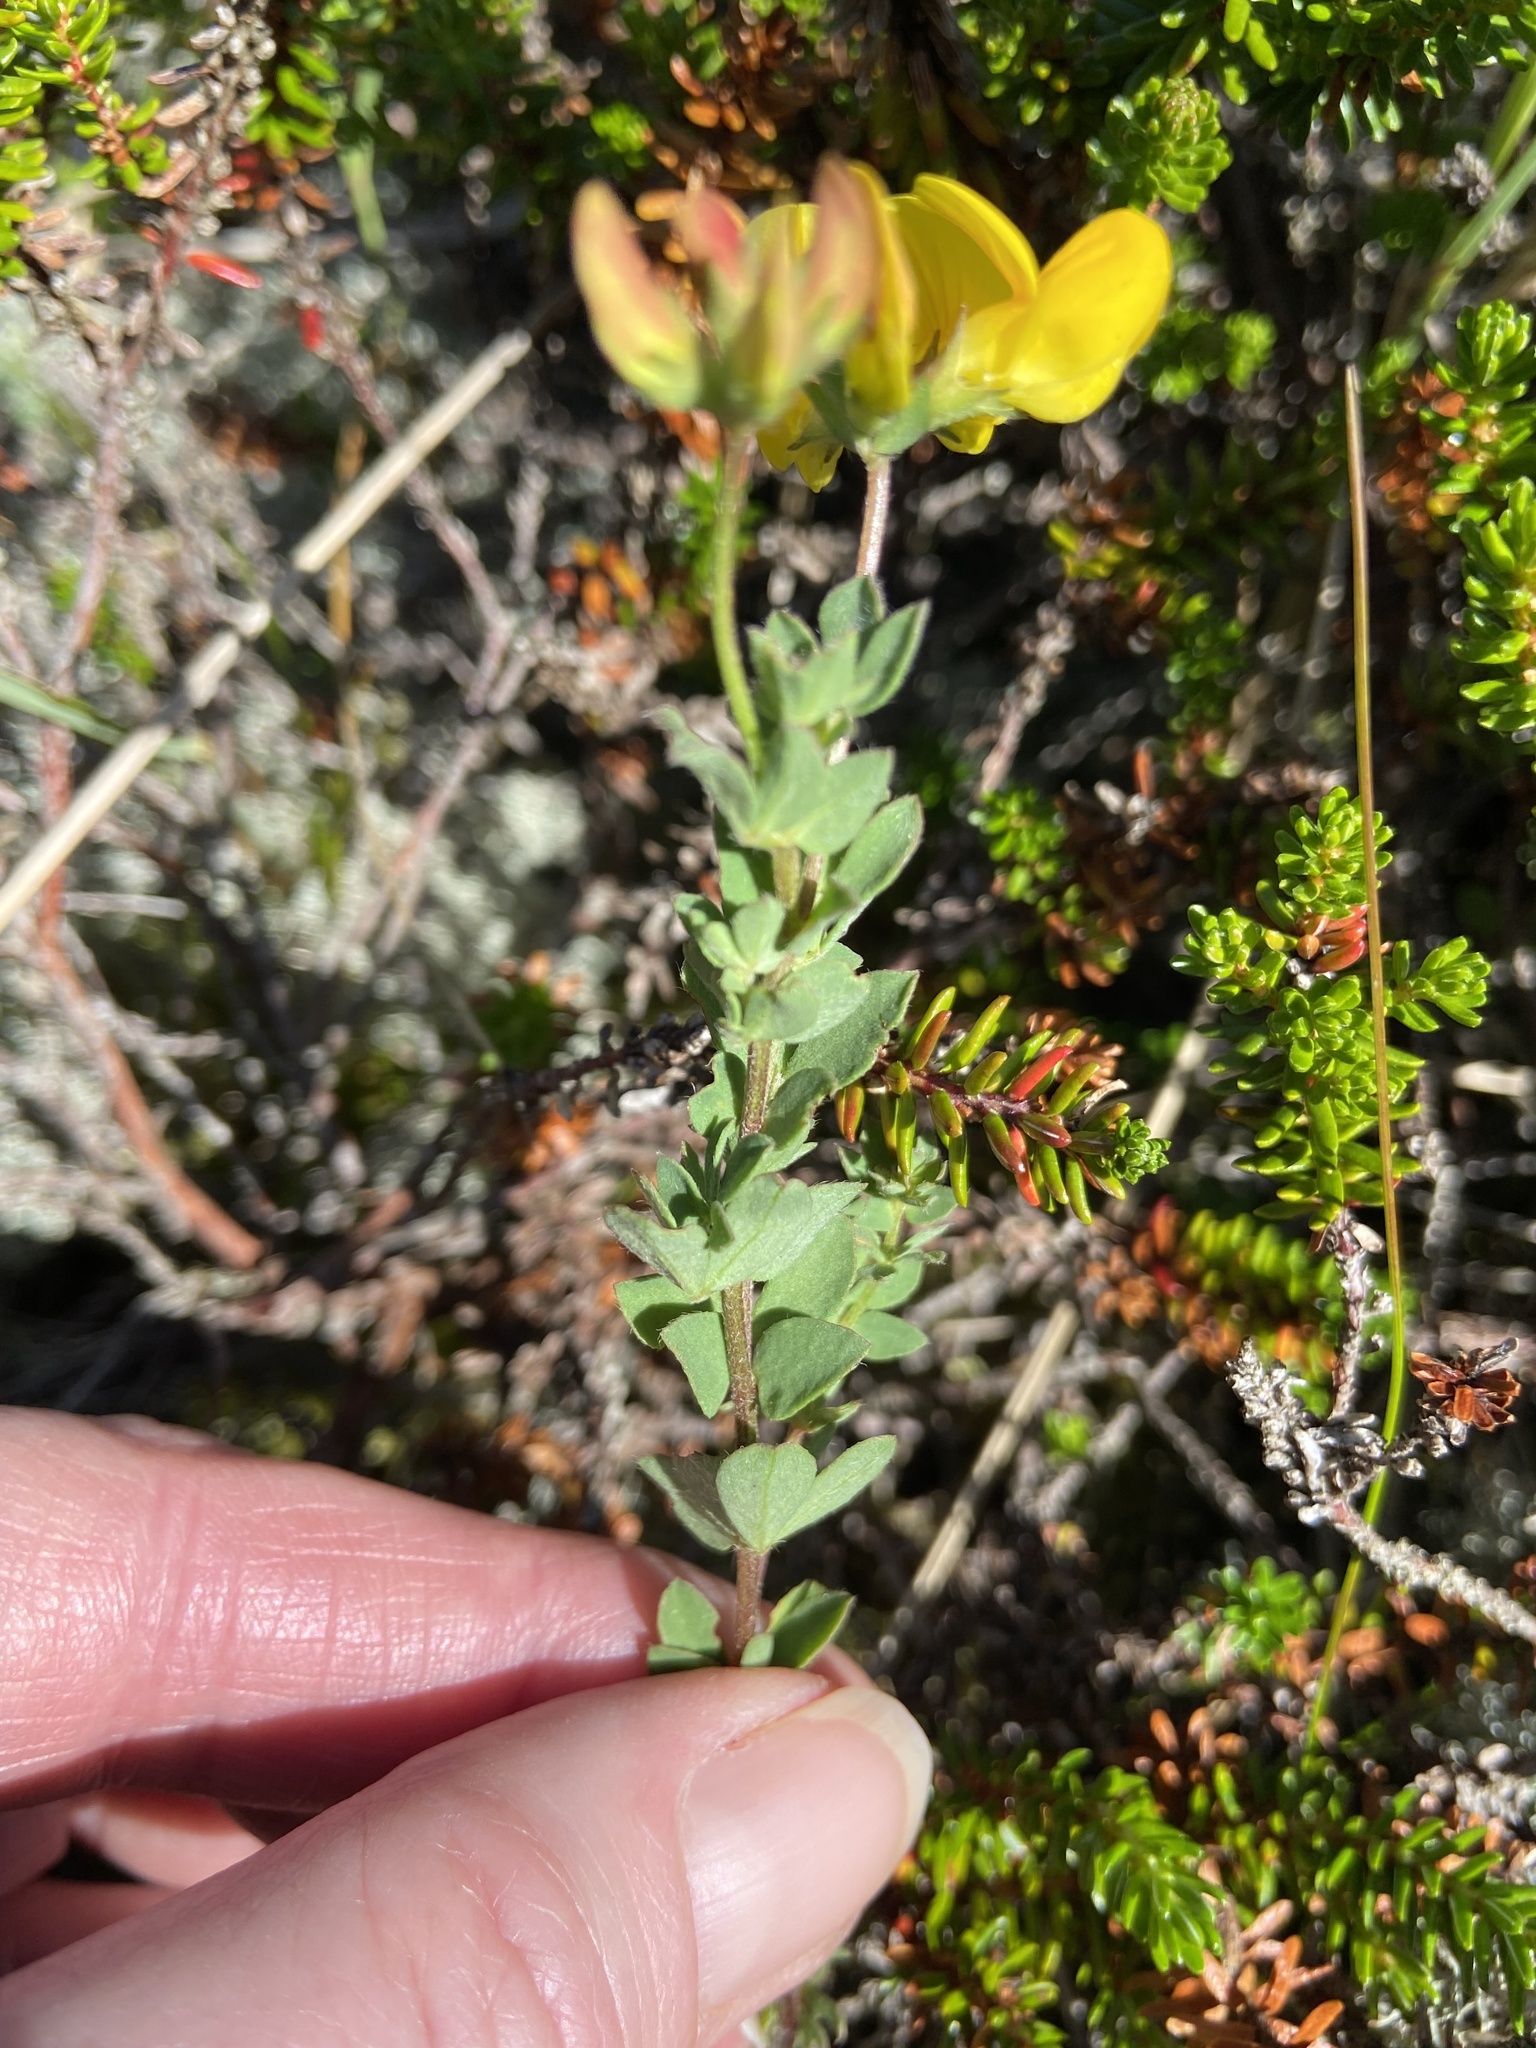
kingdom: Plantae
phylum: Tracheophyta
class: Magnoliopsida
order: Fabales
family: Fabaceae
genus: Lotus
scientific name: Lotus corniculatus
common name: Common bird's-foot-trefoil
